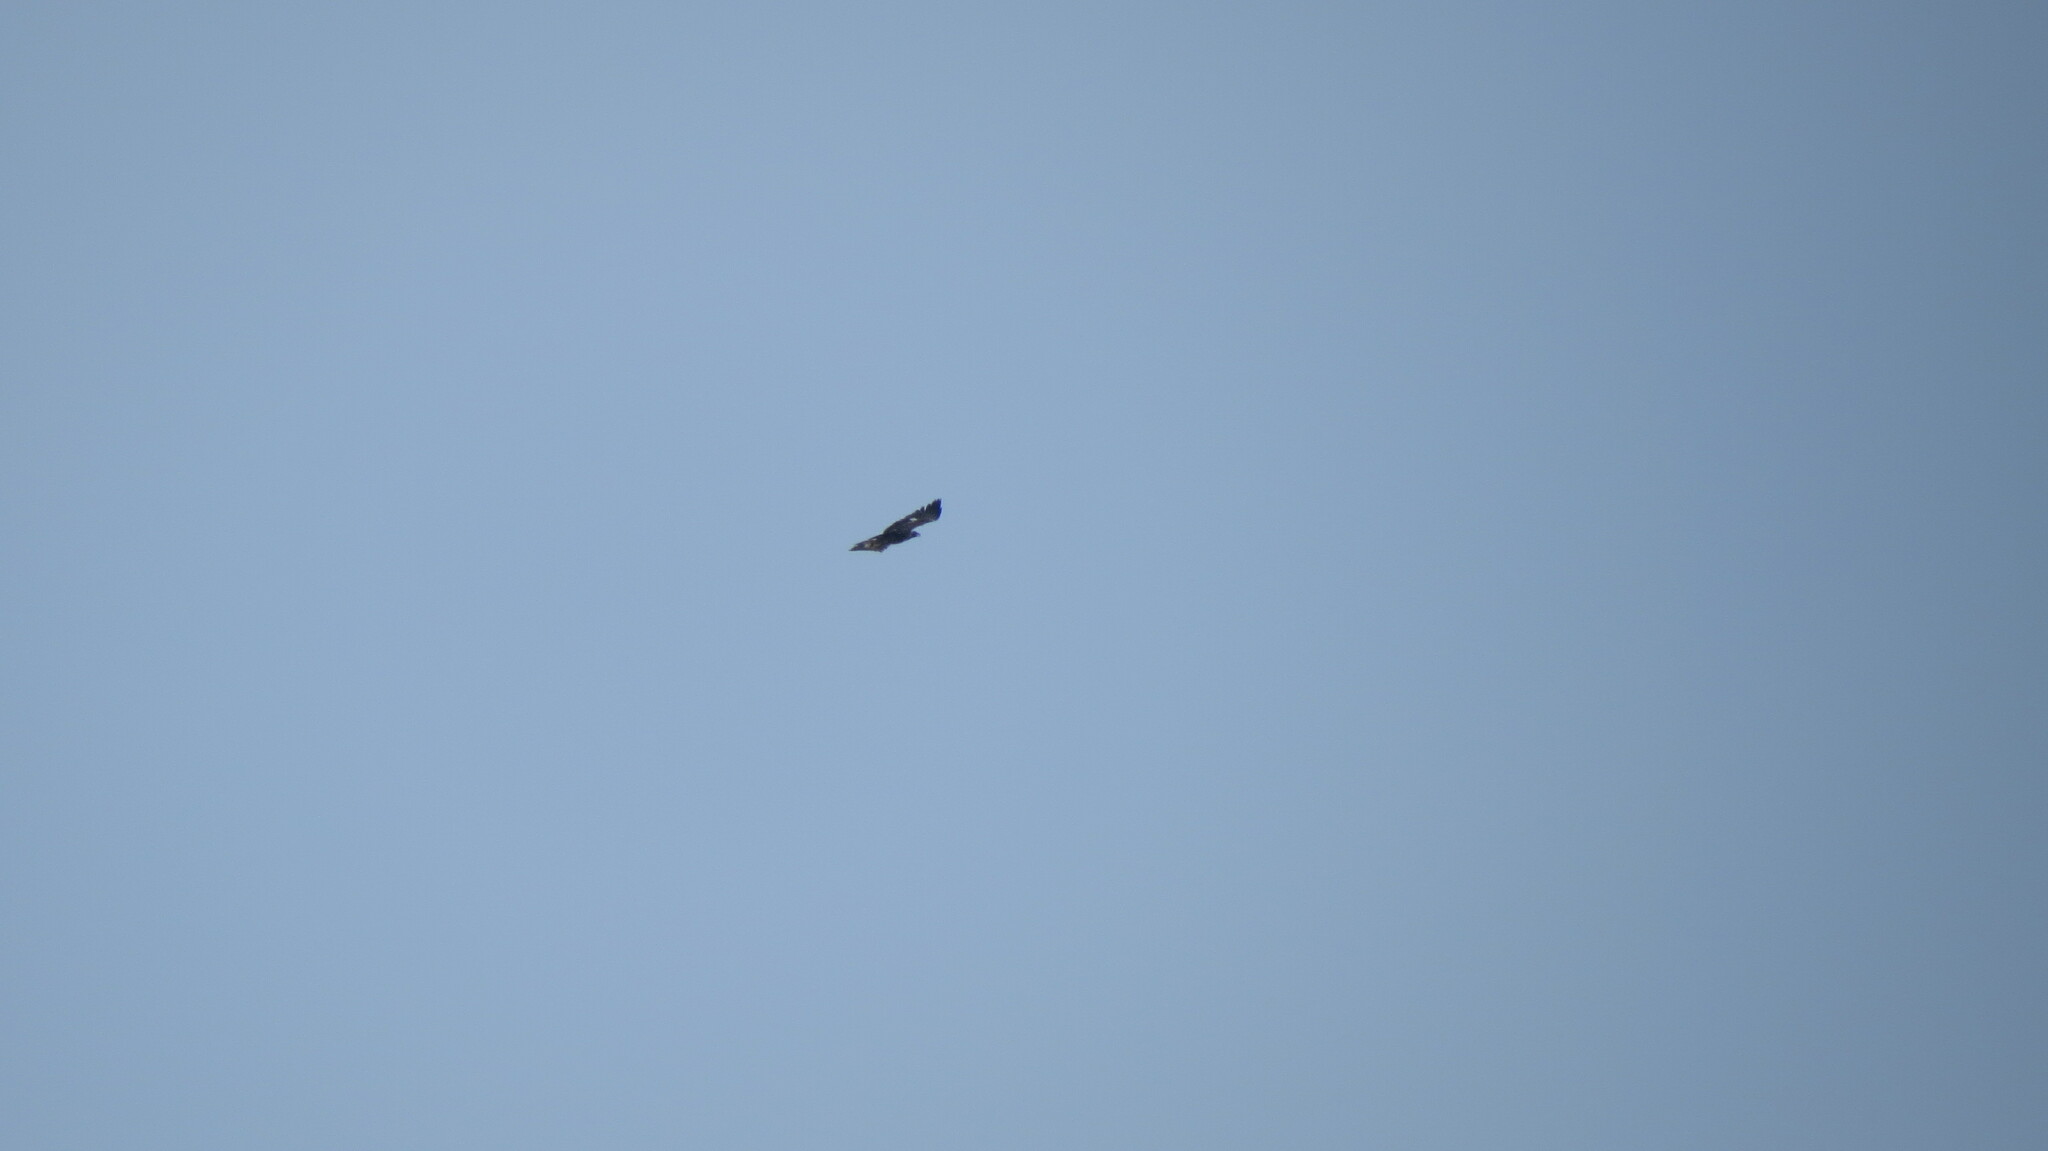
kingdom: Animalia
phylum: Chordata
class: Aves
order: Accipitriformes
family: Accipitridae
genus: Aquila
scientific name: Aquila chrysaetos
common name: Golden eagle
